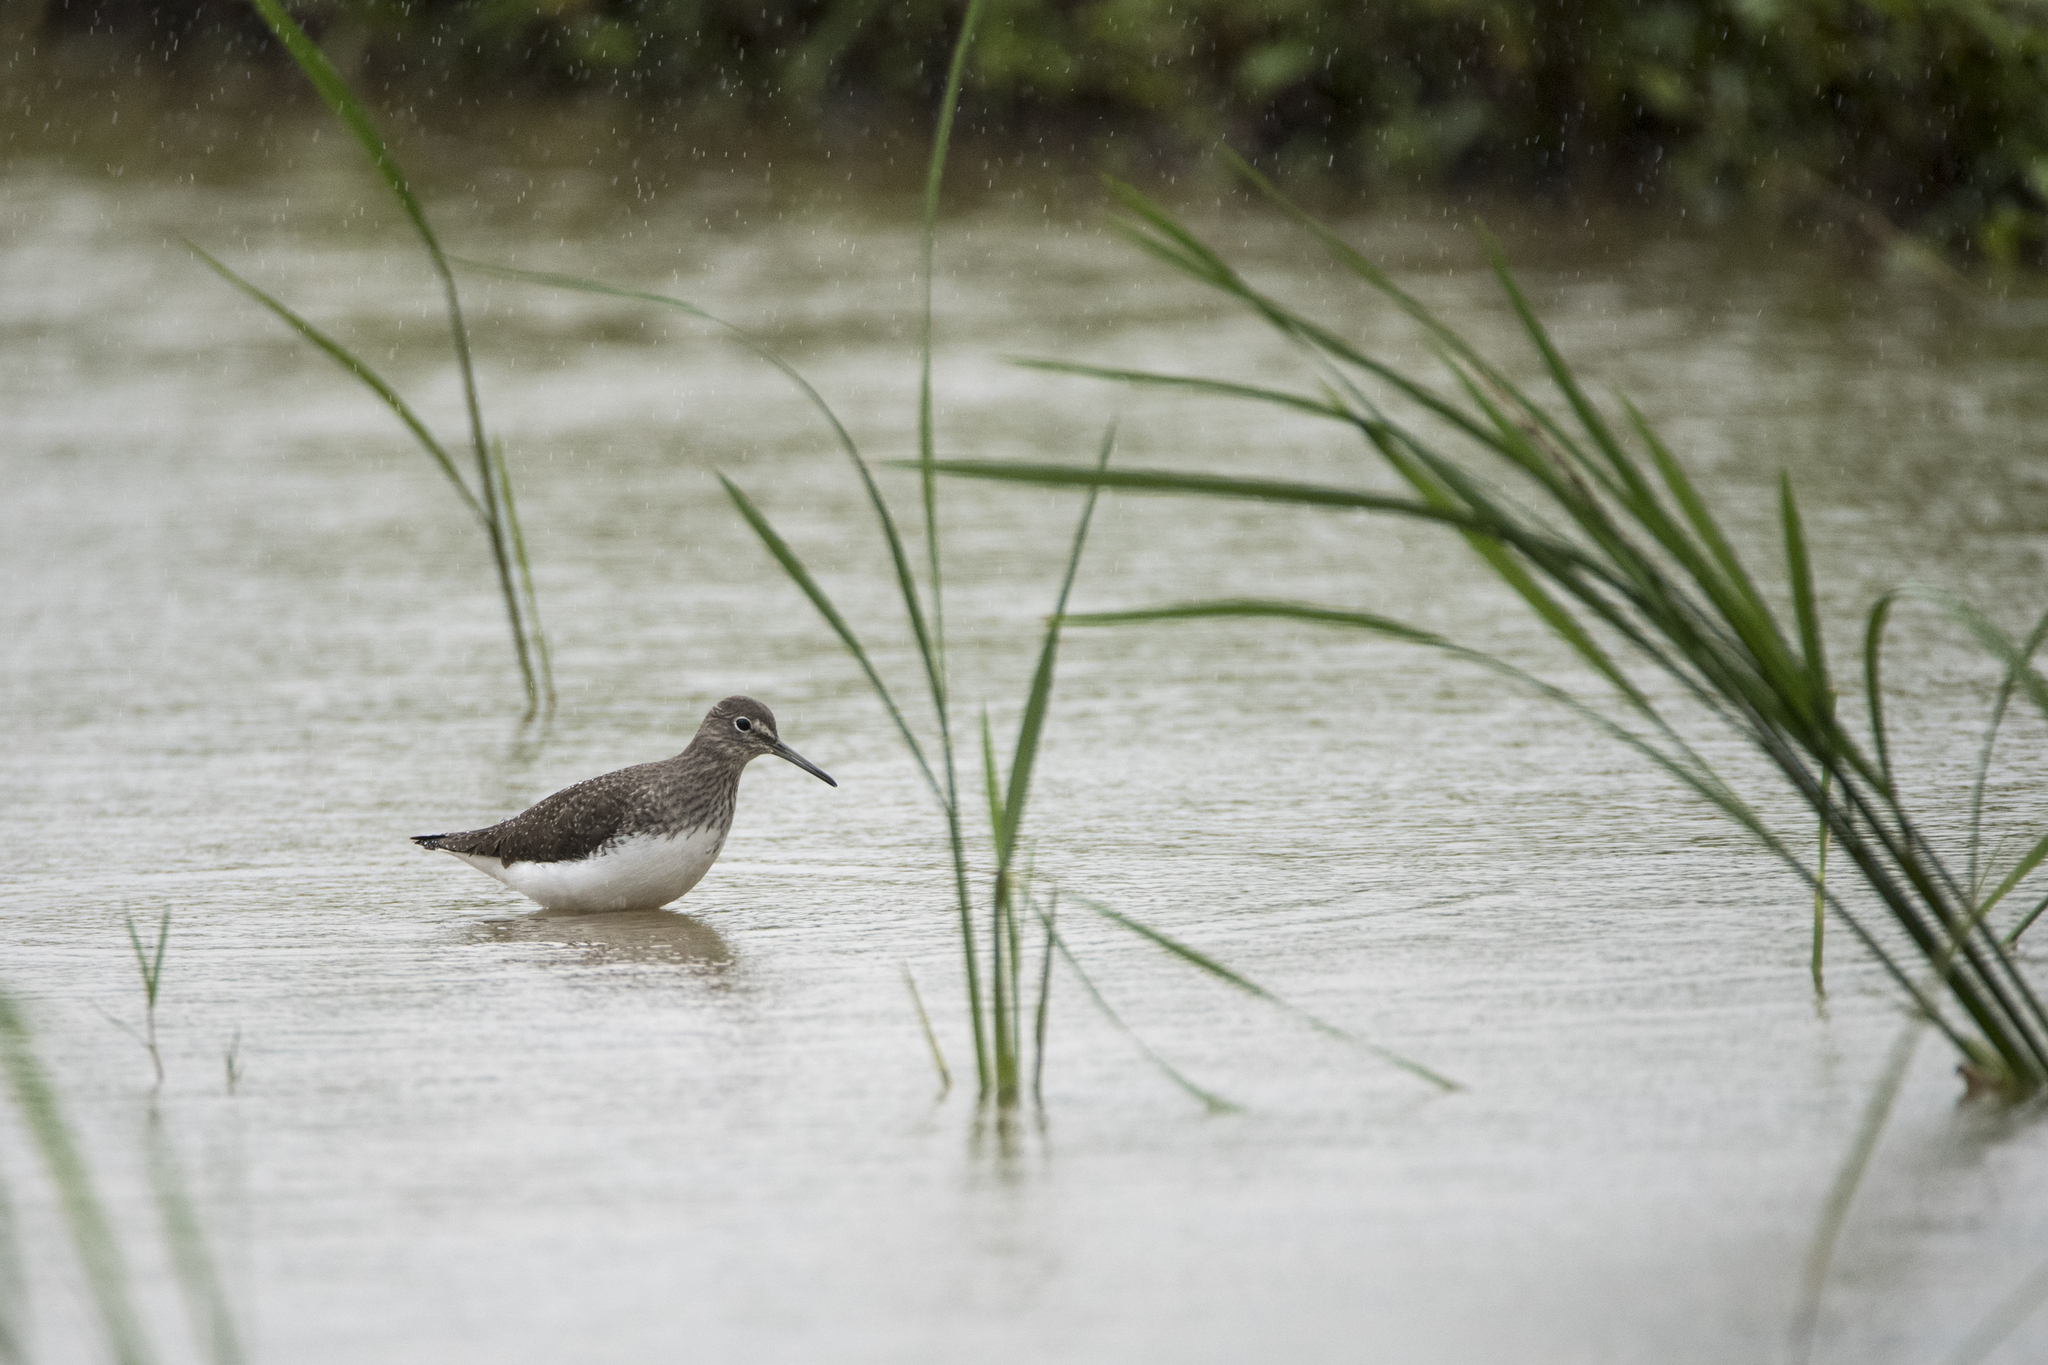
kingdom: Animalia
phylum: Chordata
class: Aves
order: Charadriiformes
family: Scolopacidae
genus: Tringa
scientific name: Tringa ochropus
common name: Green sandpiper
